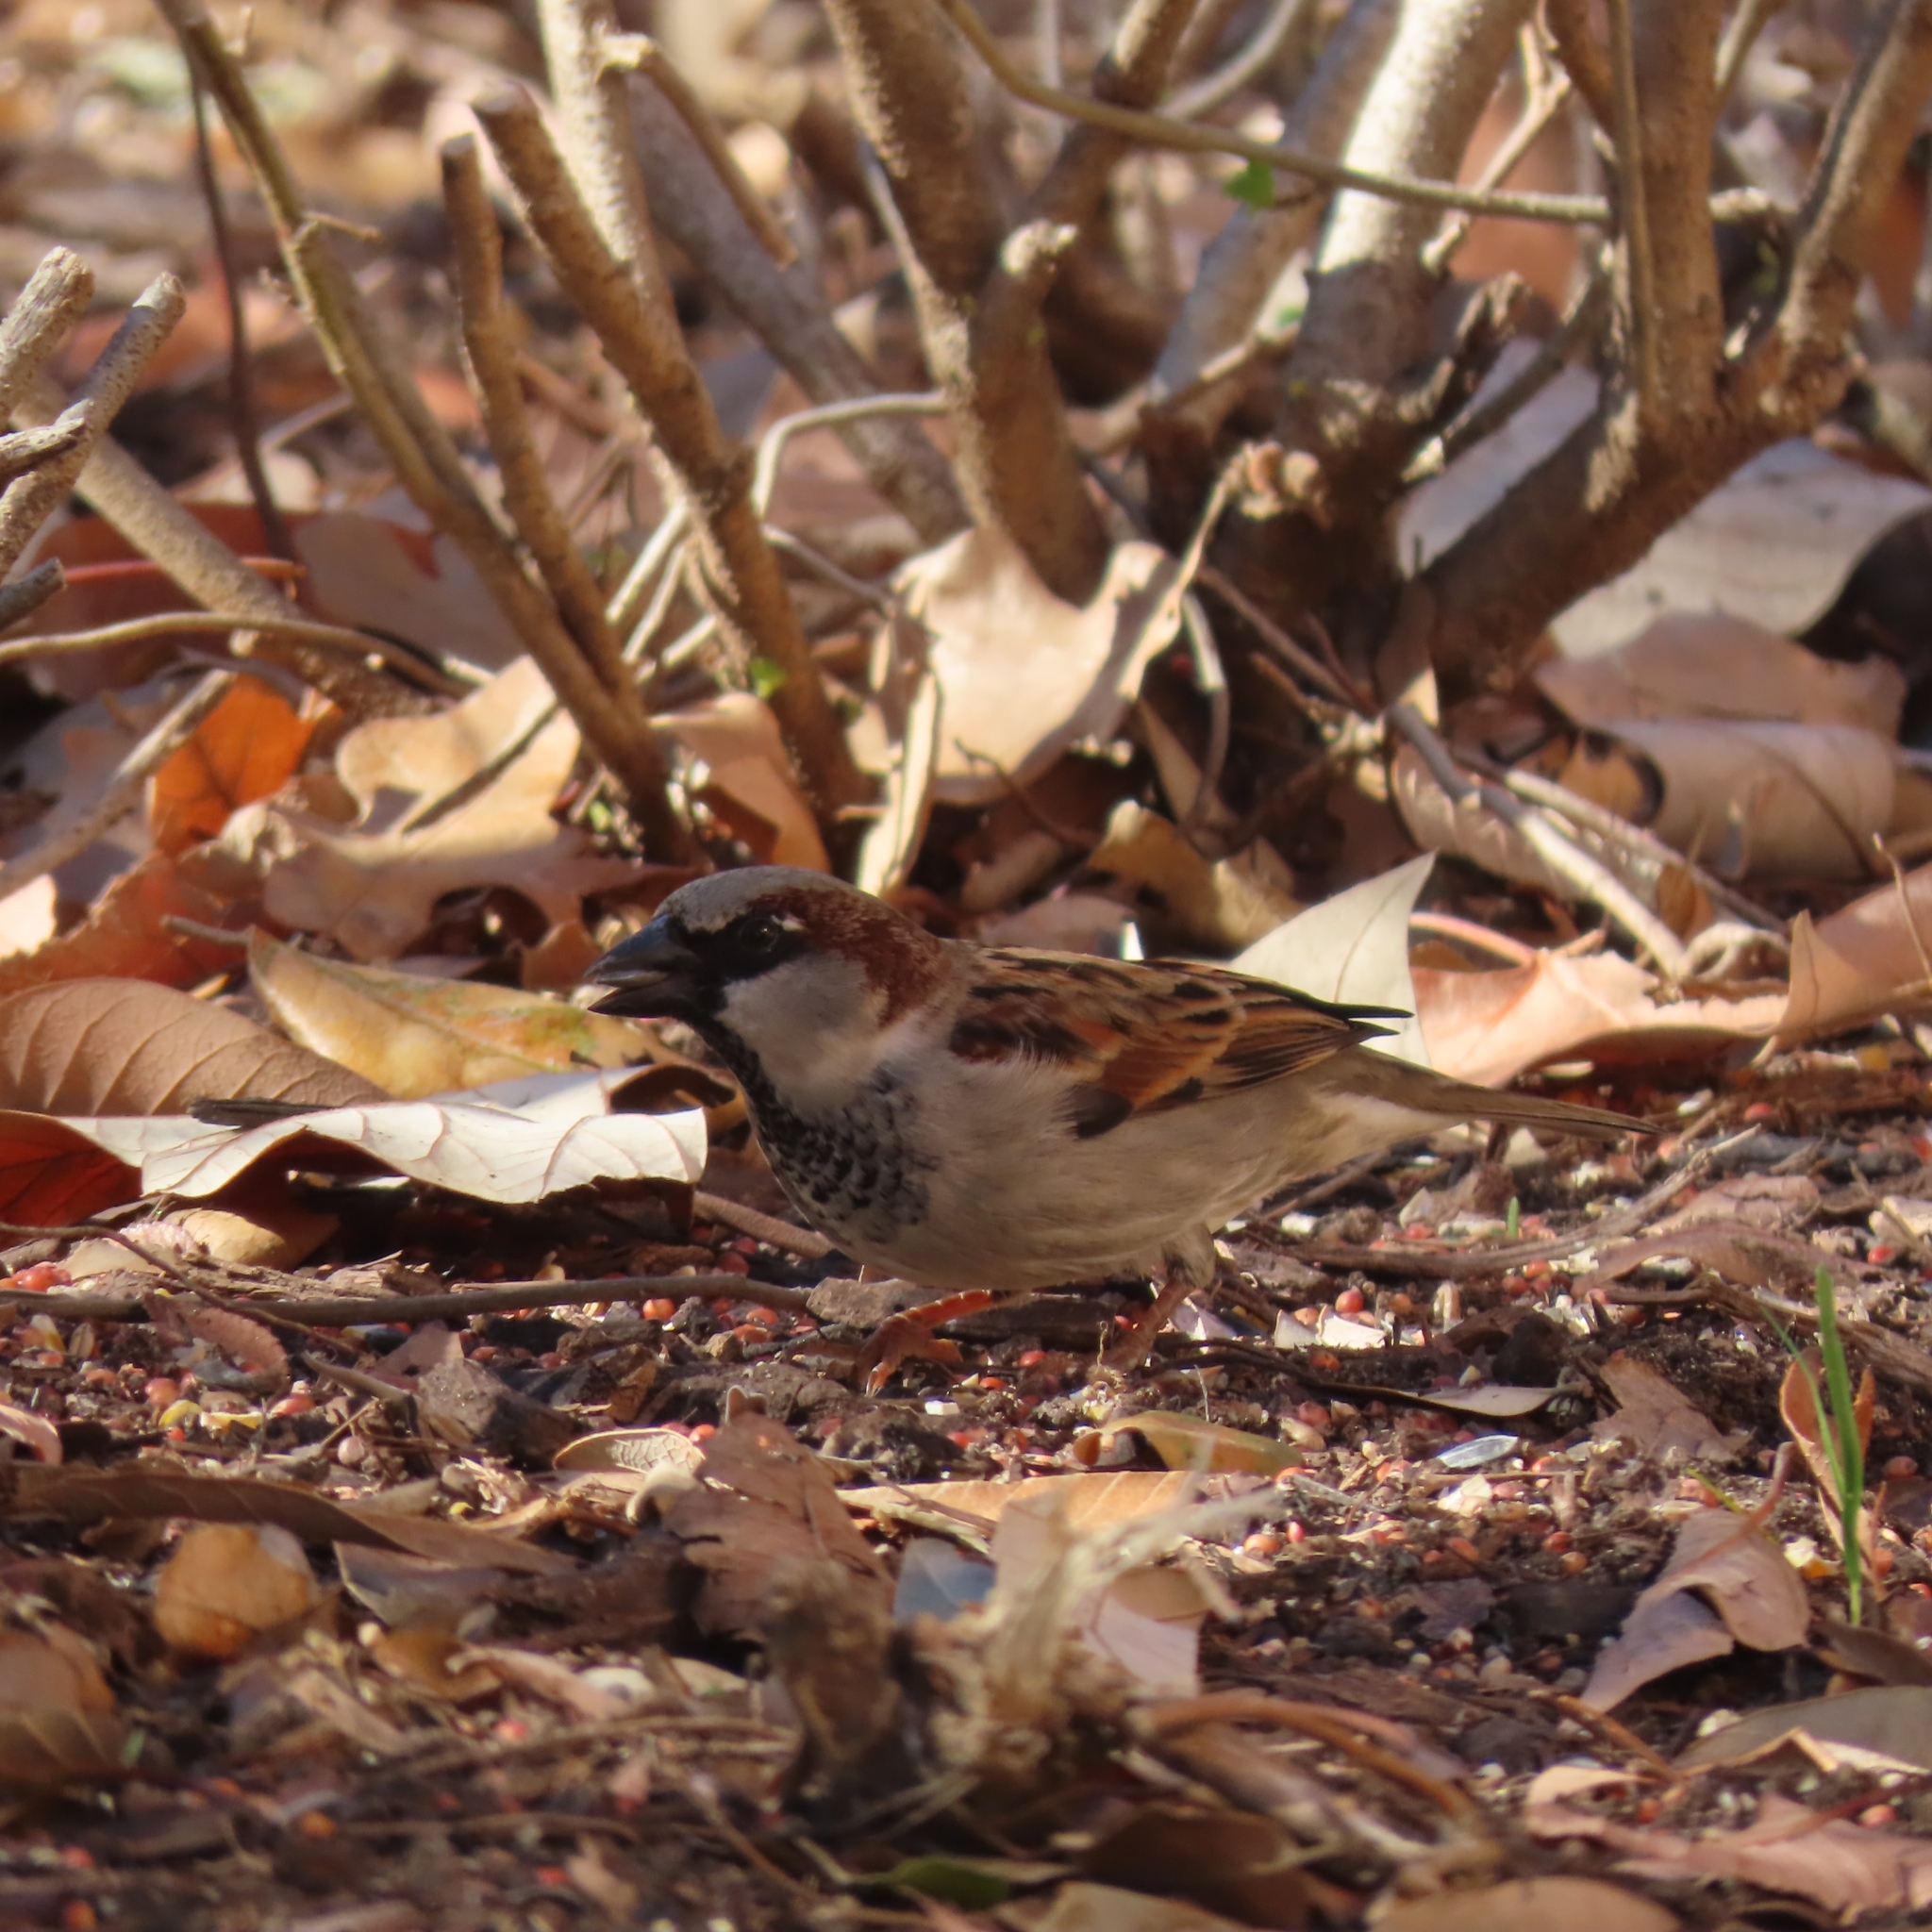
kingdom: Animalia
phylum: Chordata
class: Aves
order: Passeriformes
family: Passeridae
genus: Passer
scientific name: Passer domesticus
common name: House sparrow
